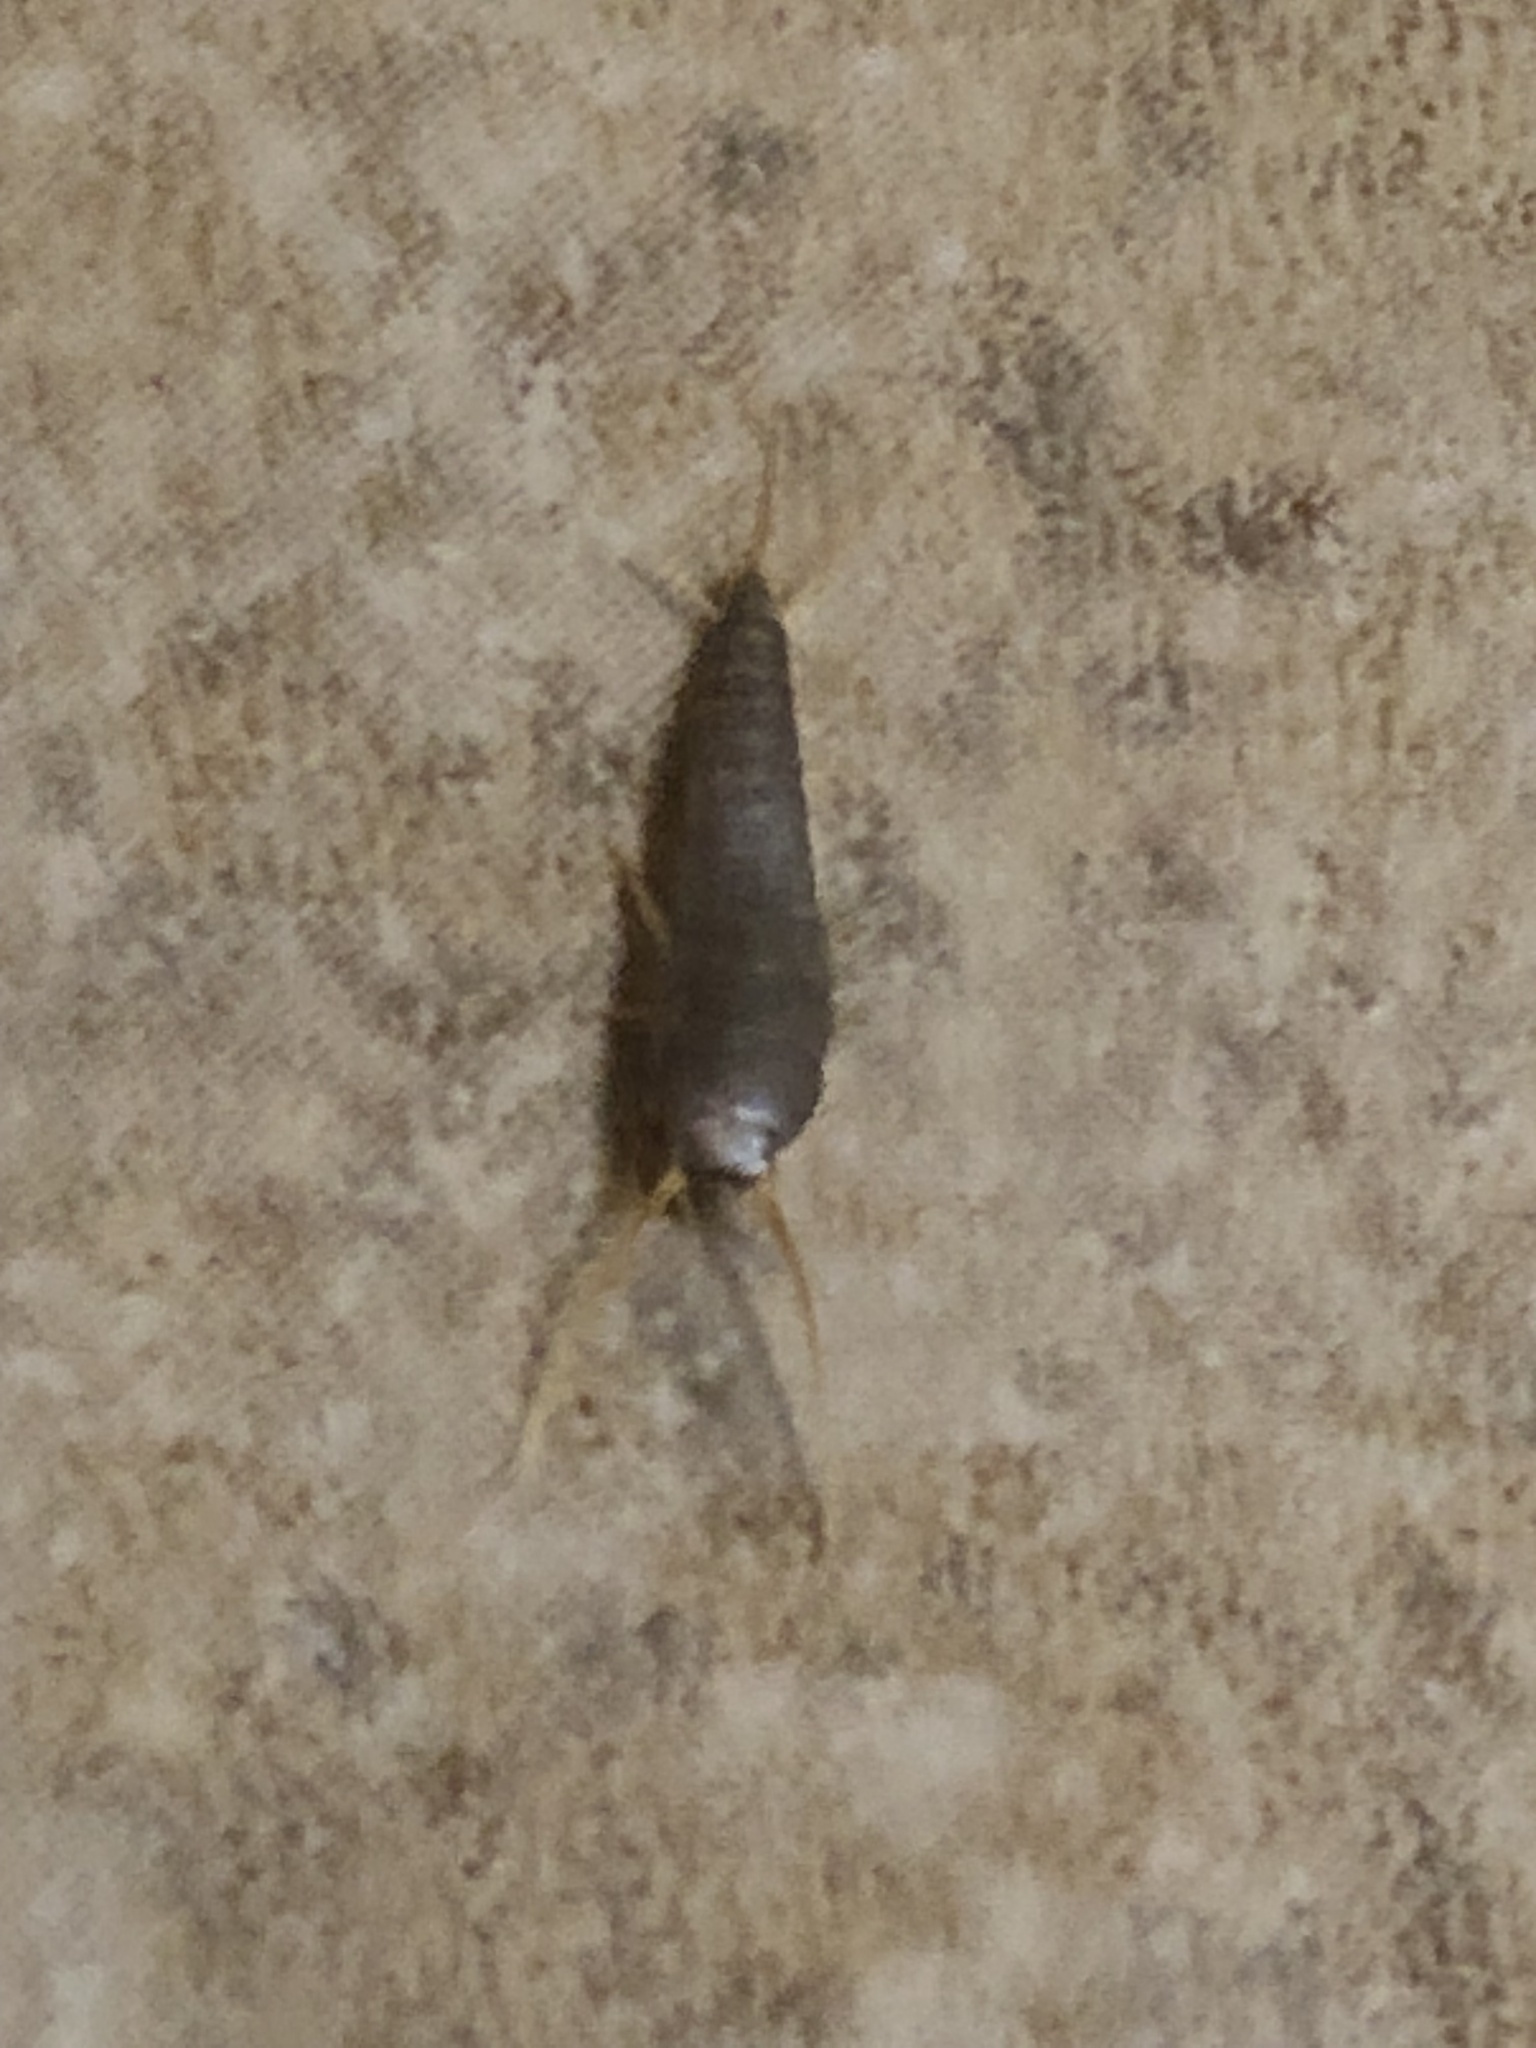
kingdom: Animalia
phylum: Arthropoda
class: Insecta
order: Zygentoma
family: Lepismatidae
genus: Lepisma
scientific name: Lepisma saccharinum
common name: Silverfish
